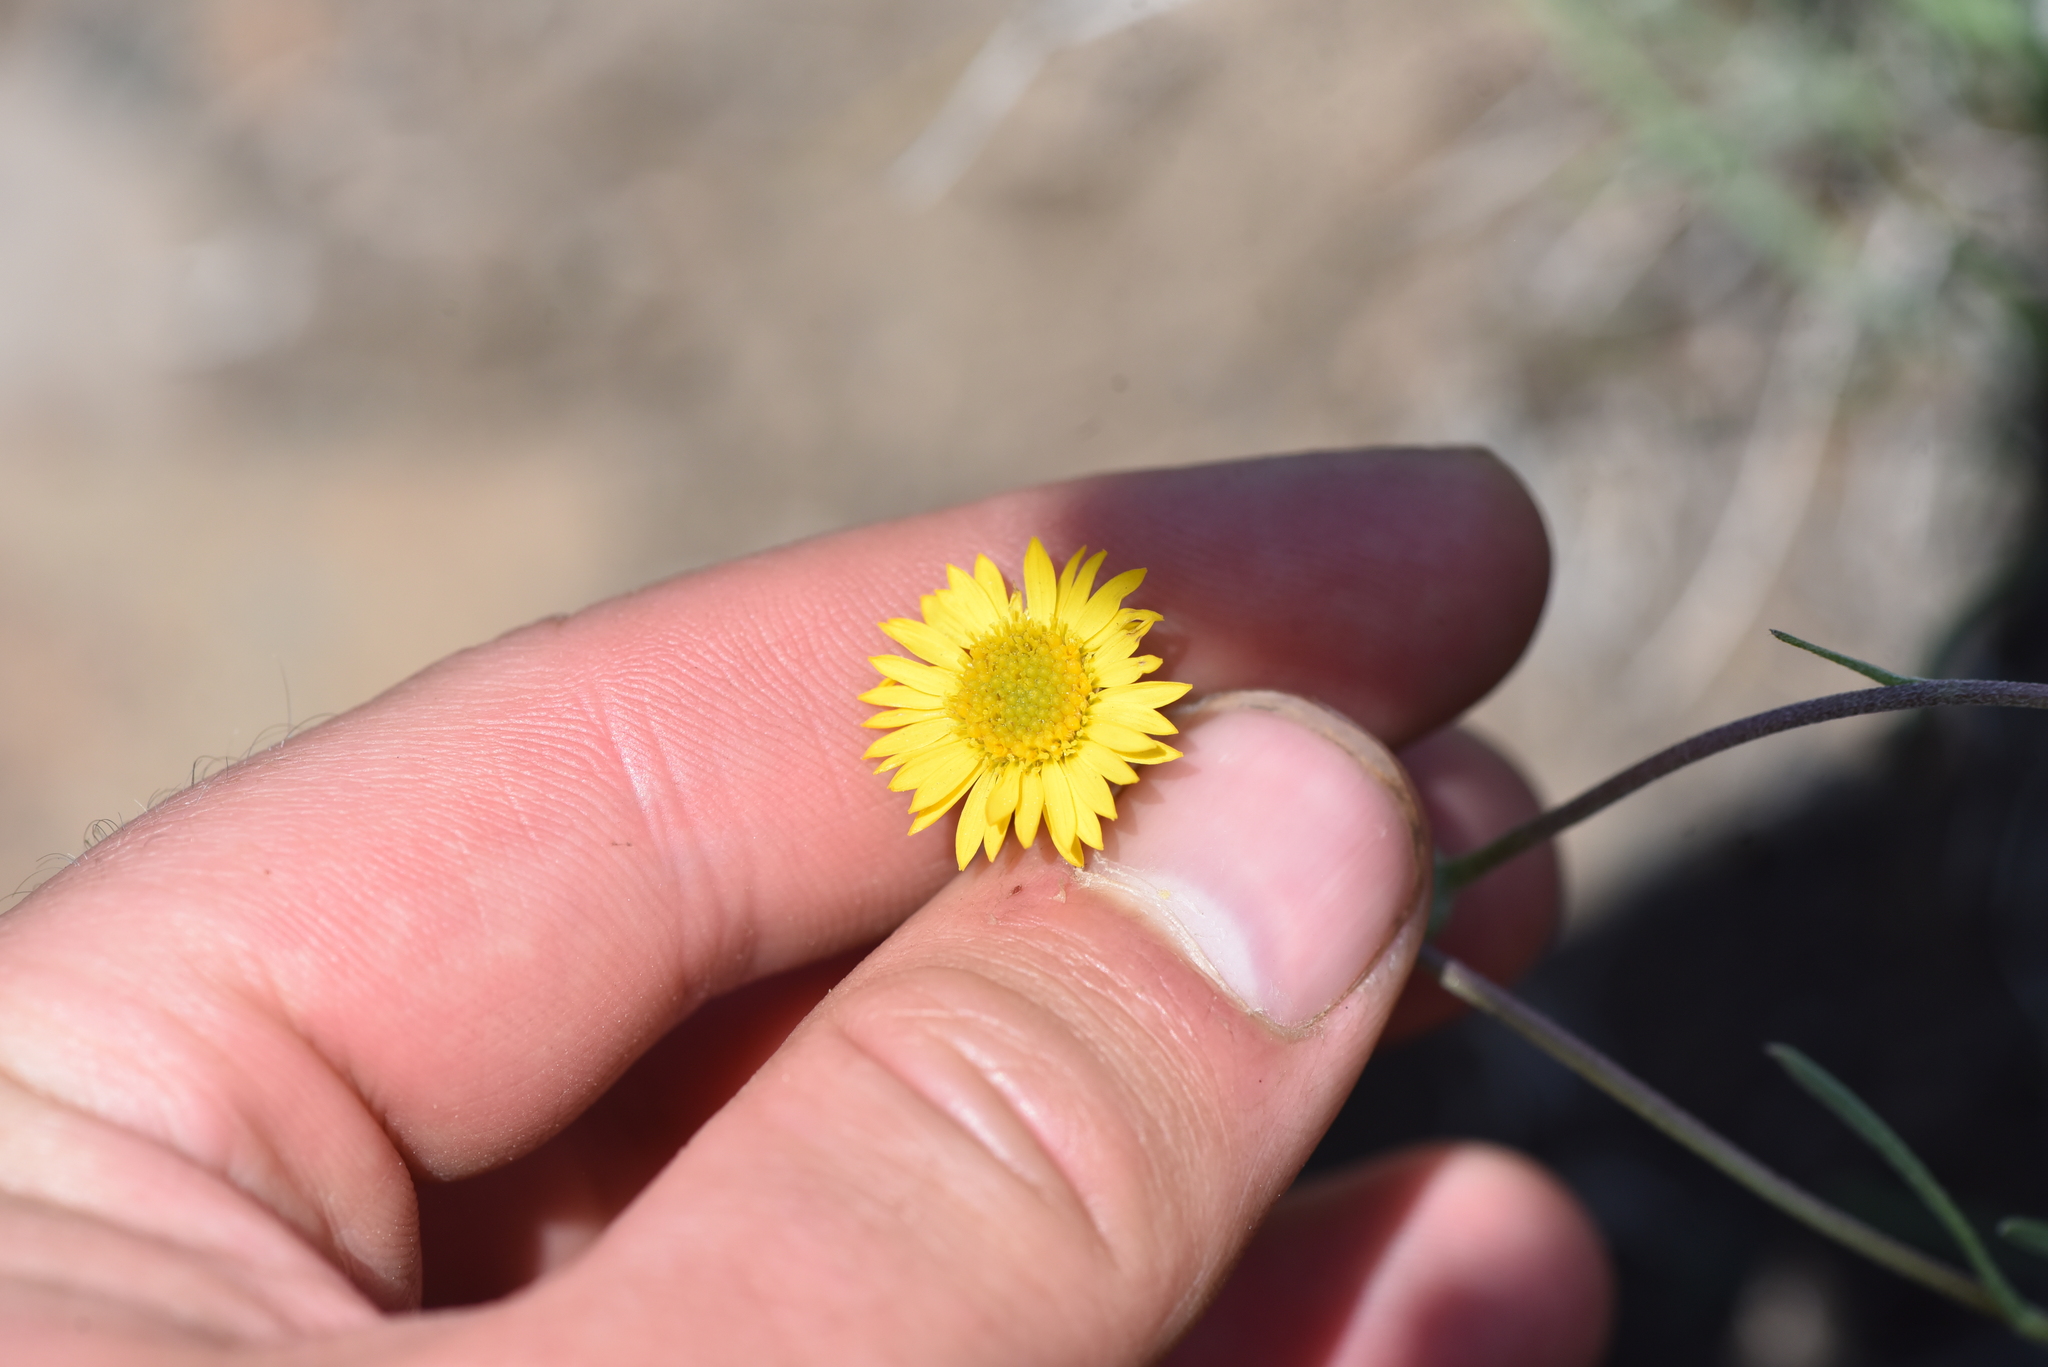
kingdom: Plantae
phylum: Tracheophyta
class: Magnoliopsida
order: Asterales
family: Asteraceae
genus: Erigeron
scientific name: Erigeron linearis
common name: Desert yellow fleabane
